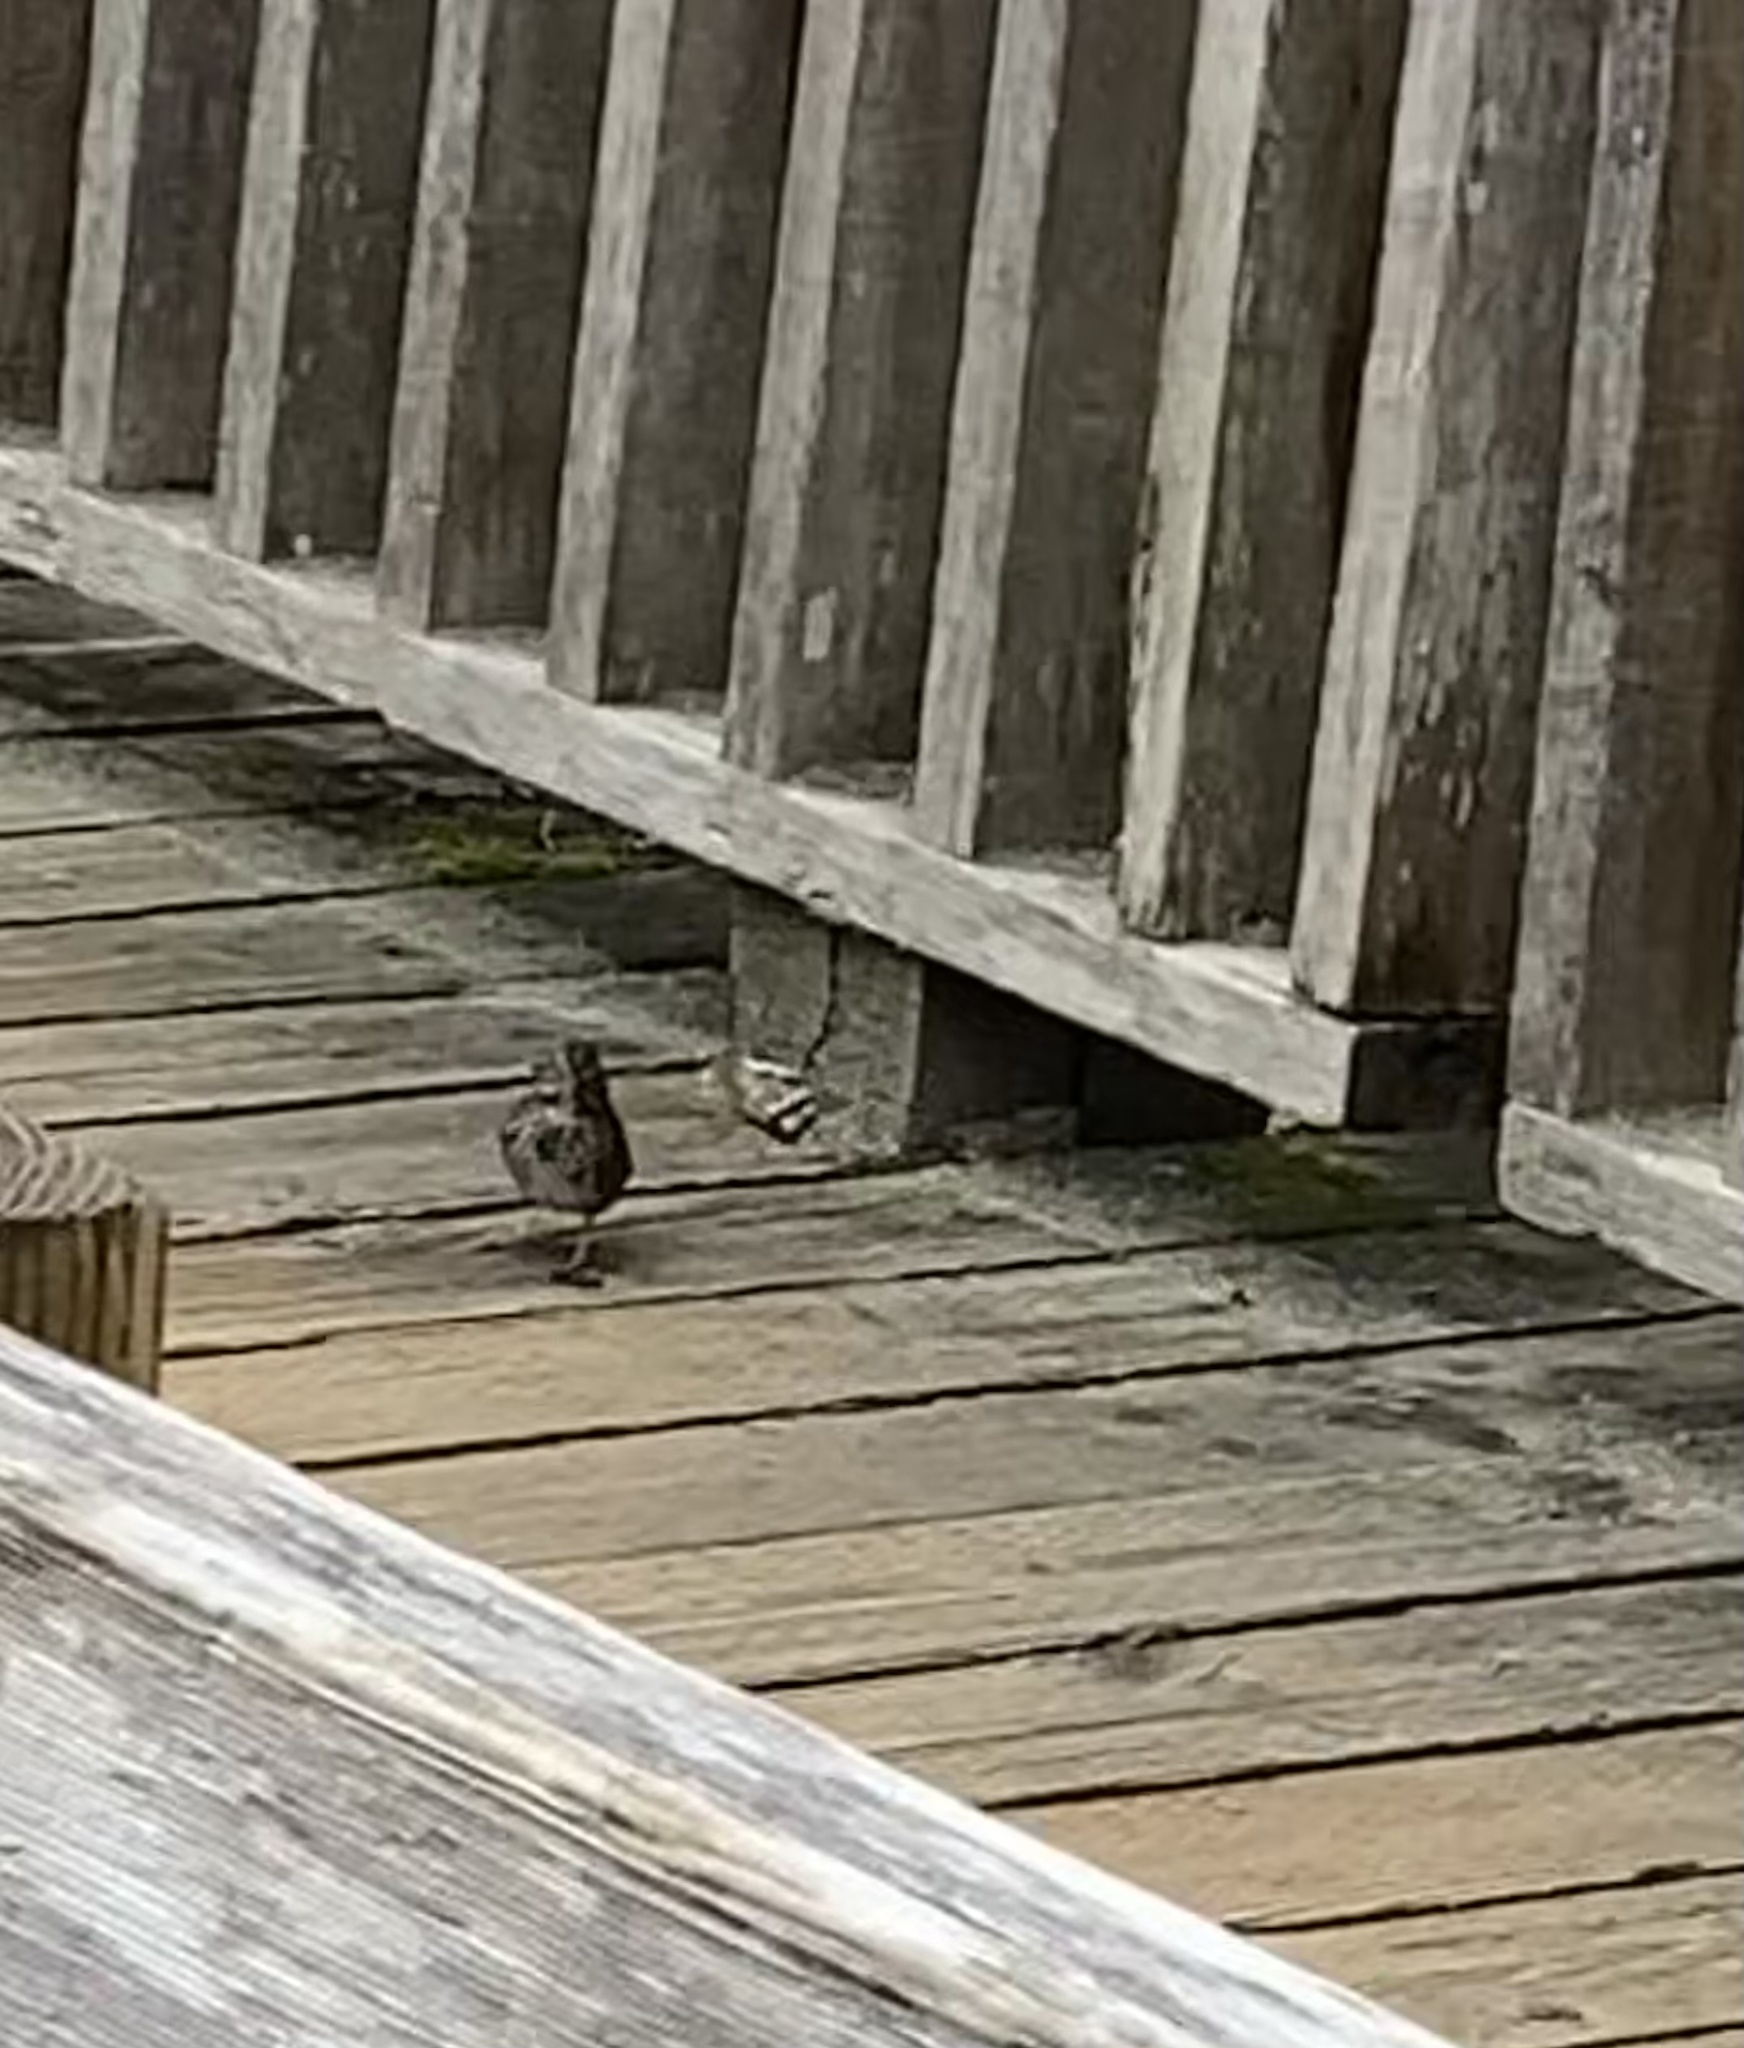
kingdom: Animalia
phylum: Chordata
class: Aves
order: Passeriformes
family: Passerellidae
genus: Melospiza
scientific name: Melospiza melodia
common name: Song sparrow
